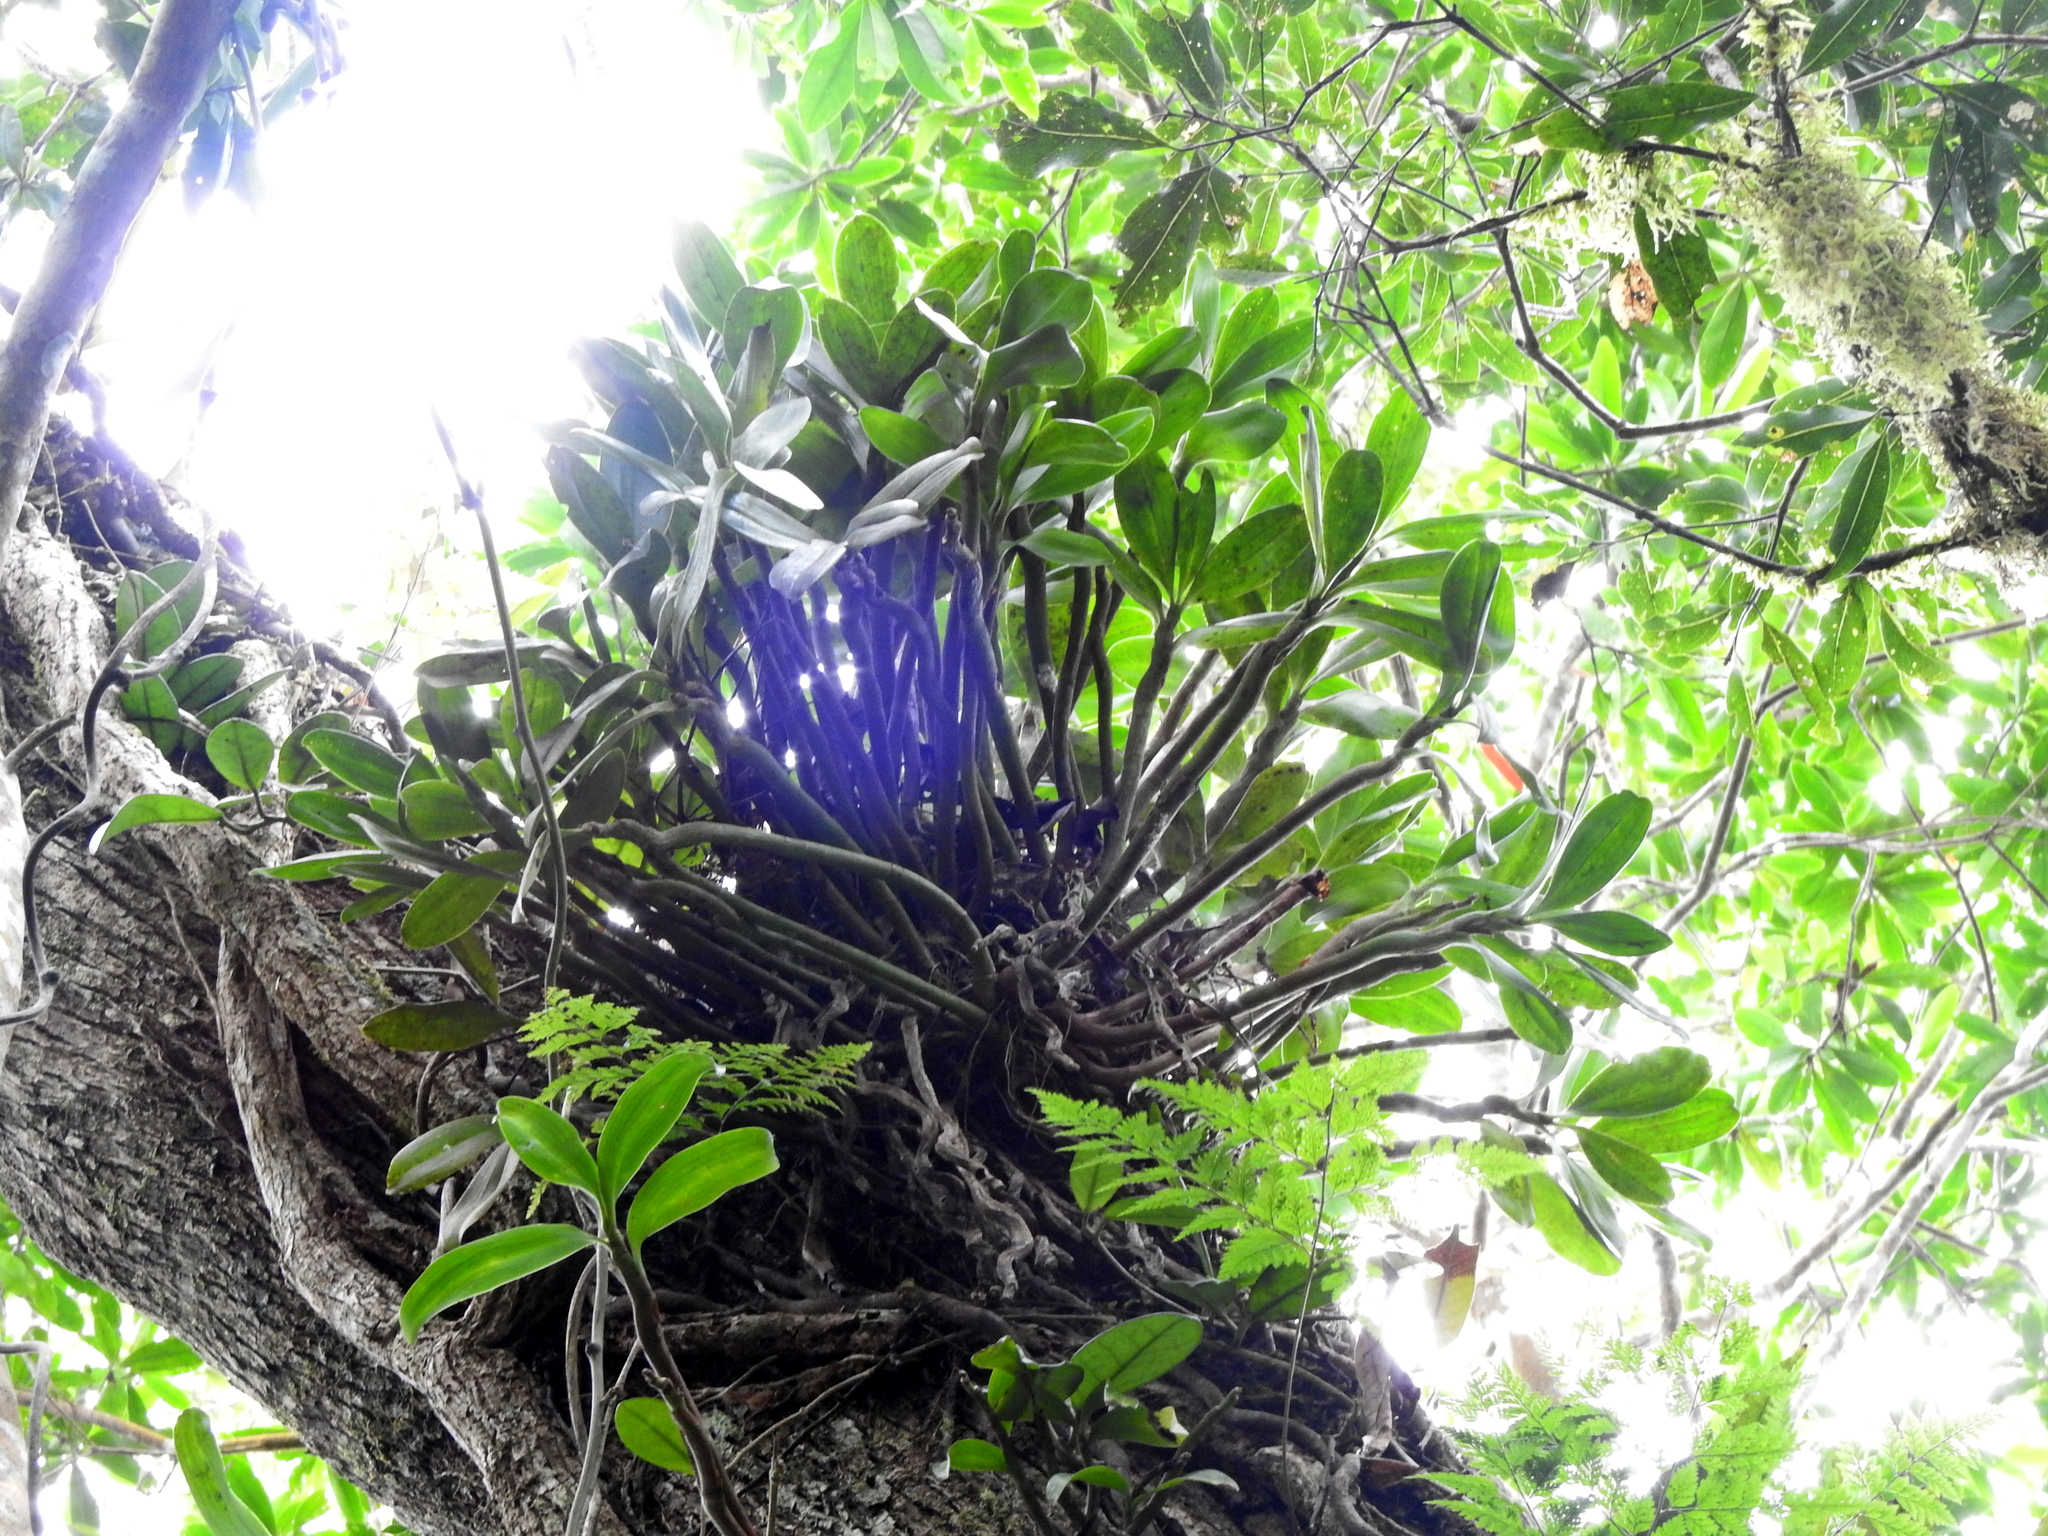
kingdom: Plantae
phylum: Tracheophyta
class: Liliopsida
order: Asparagales
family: Orchidaceae
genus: Pinalia
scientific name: Pinalia ovata
